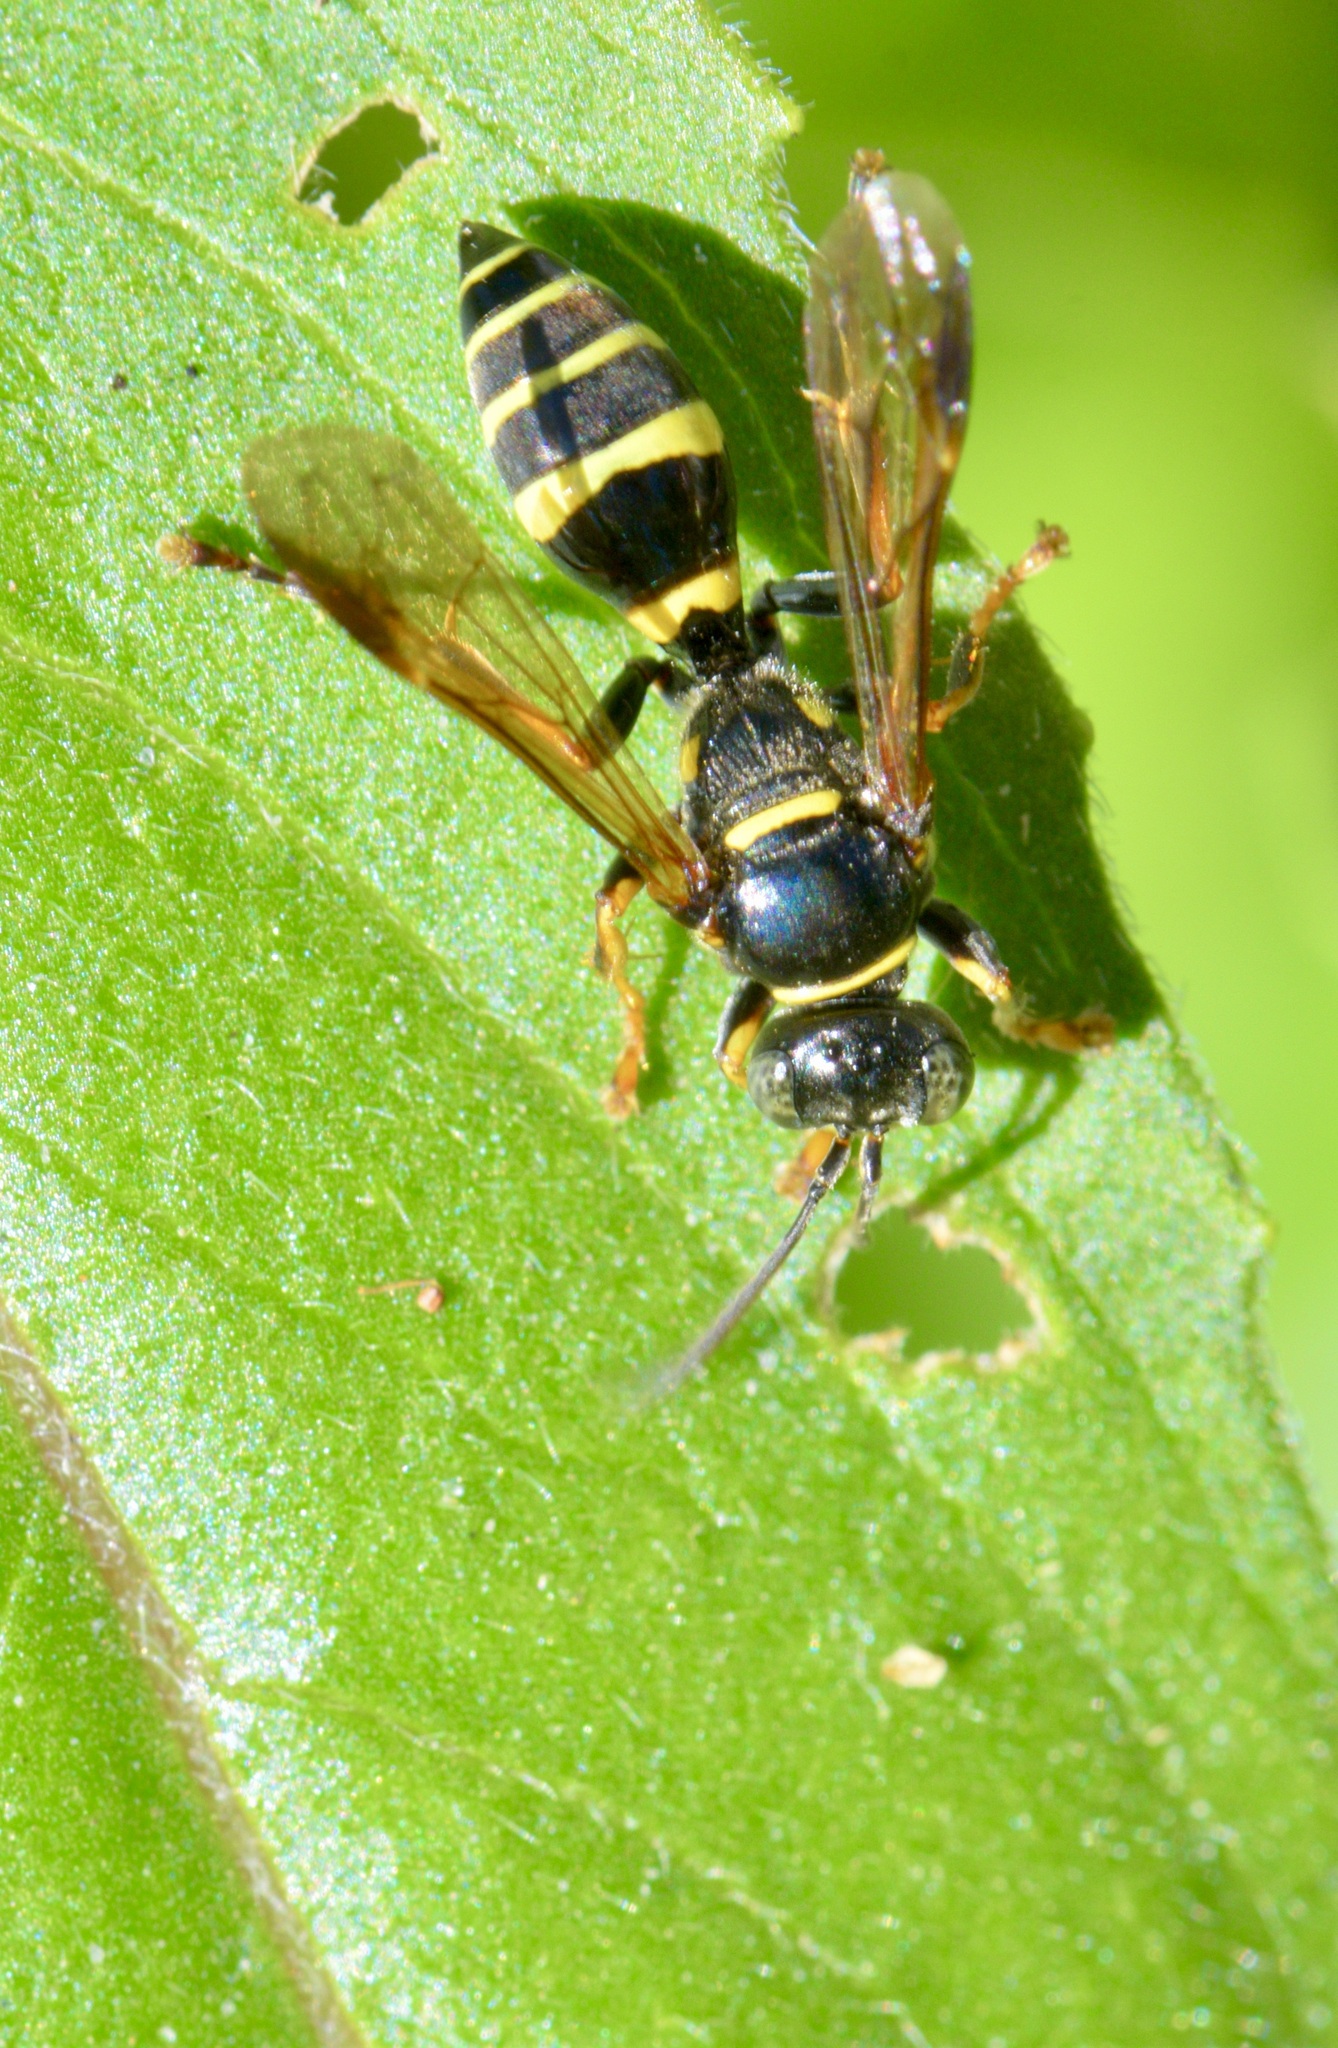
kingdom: Animalia
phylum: Arthropoda
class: Insecta
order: Hymenoptera
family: Crabronidae
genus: Saygorytes
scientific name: Saygorytes phaleratus
